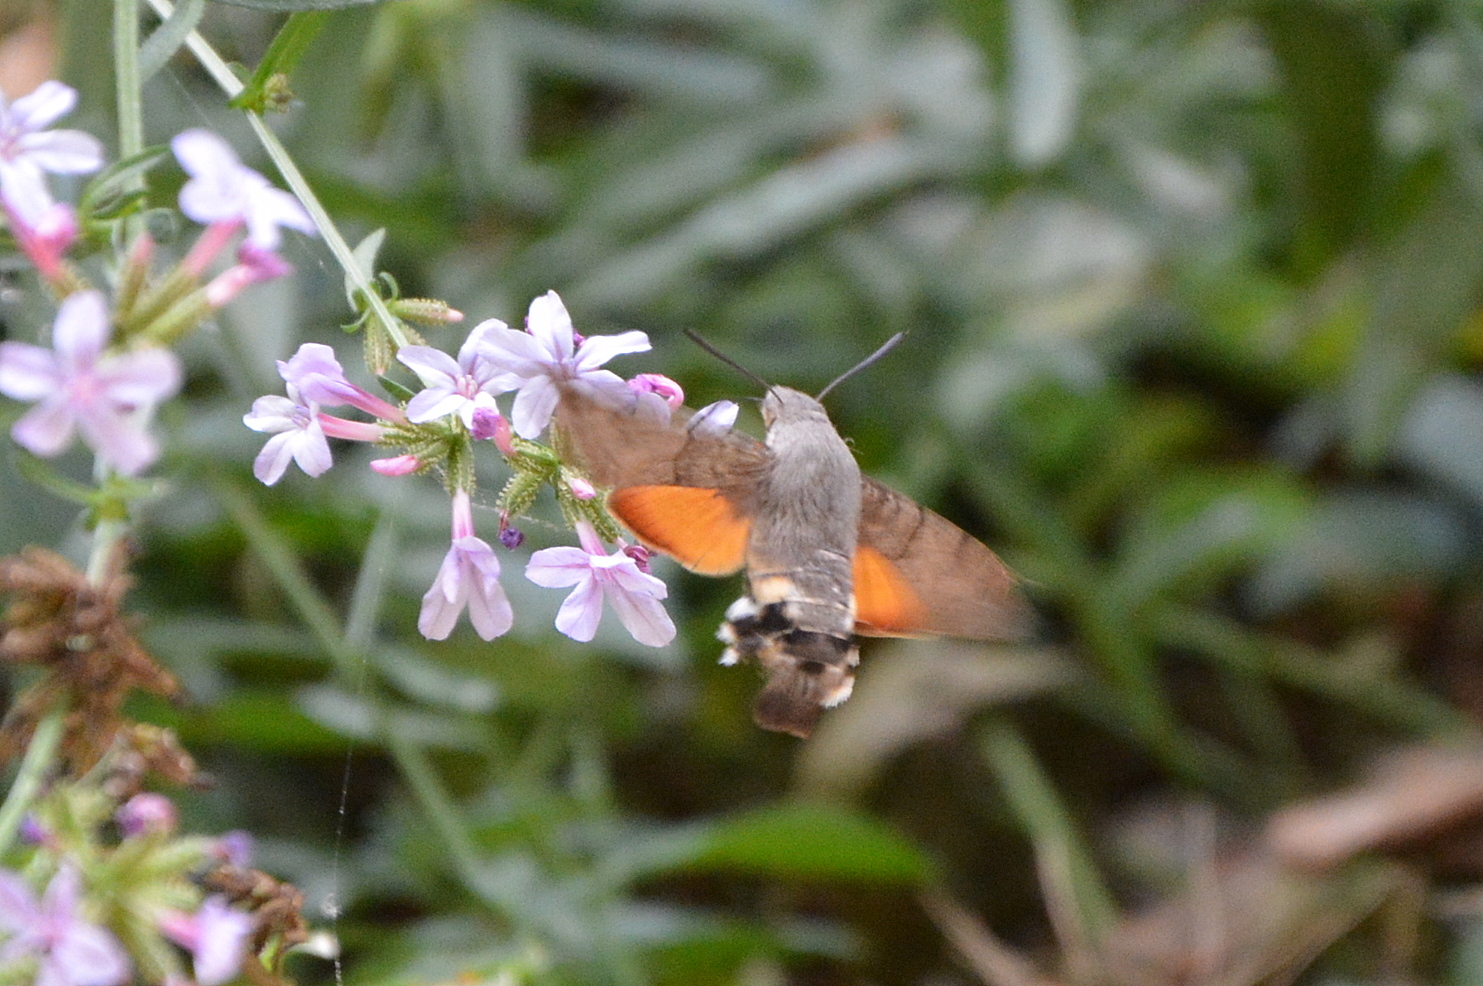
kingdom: Animalia
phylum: Arthropoda
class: Insecta
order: Lepidoptera
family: Sphingidae
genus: Macroglossum
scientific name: Macroglossum stellatarum
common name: Humming-bird hawk-moth
